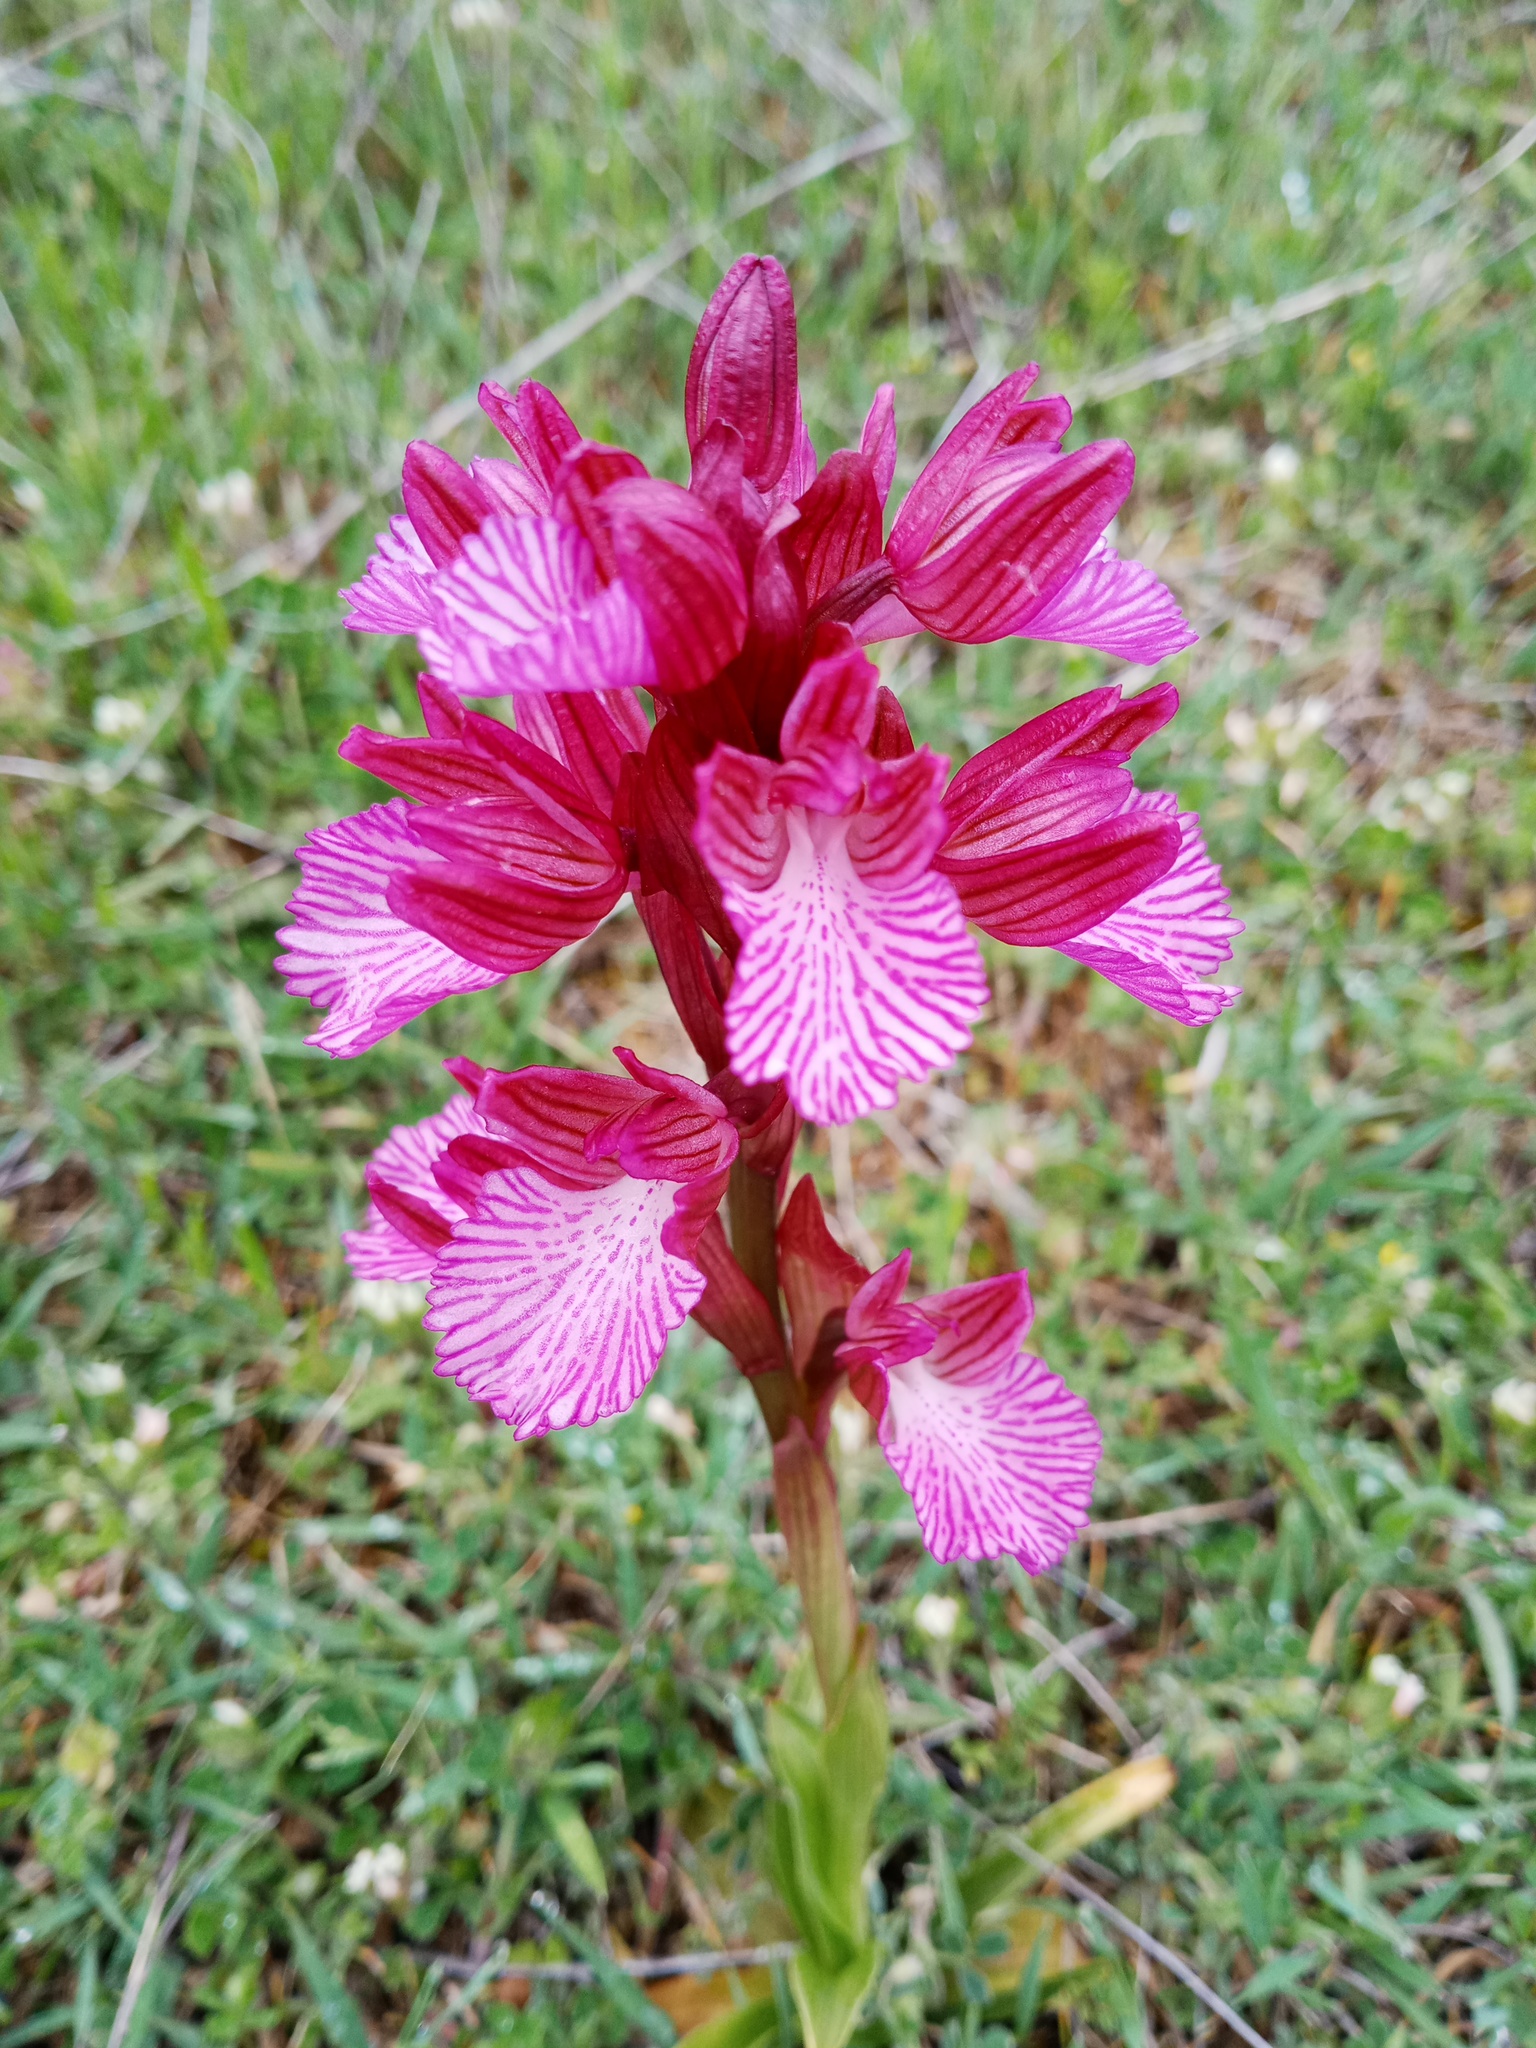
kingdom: Plantae
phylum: Tracheophyta
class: Liliopsida
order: Asparagales
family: Orchidaceae
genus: Anacamptis
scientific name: Anacamptis papilionacea
